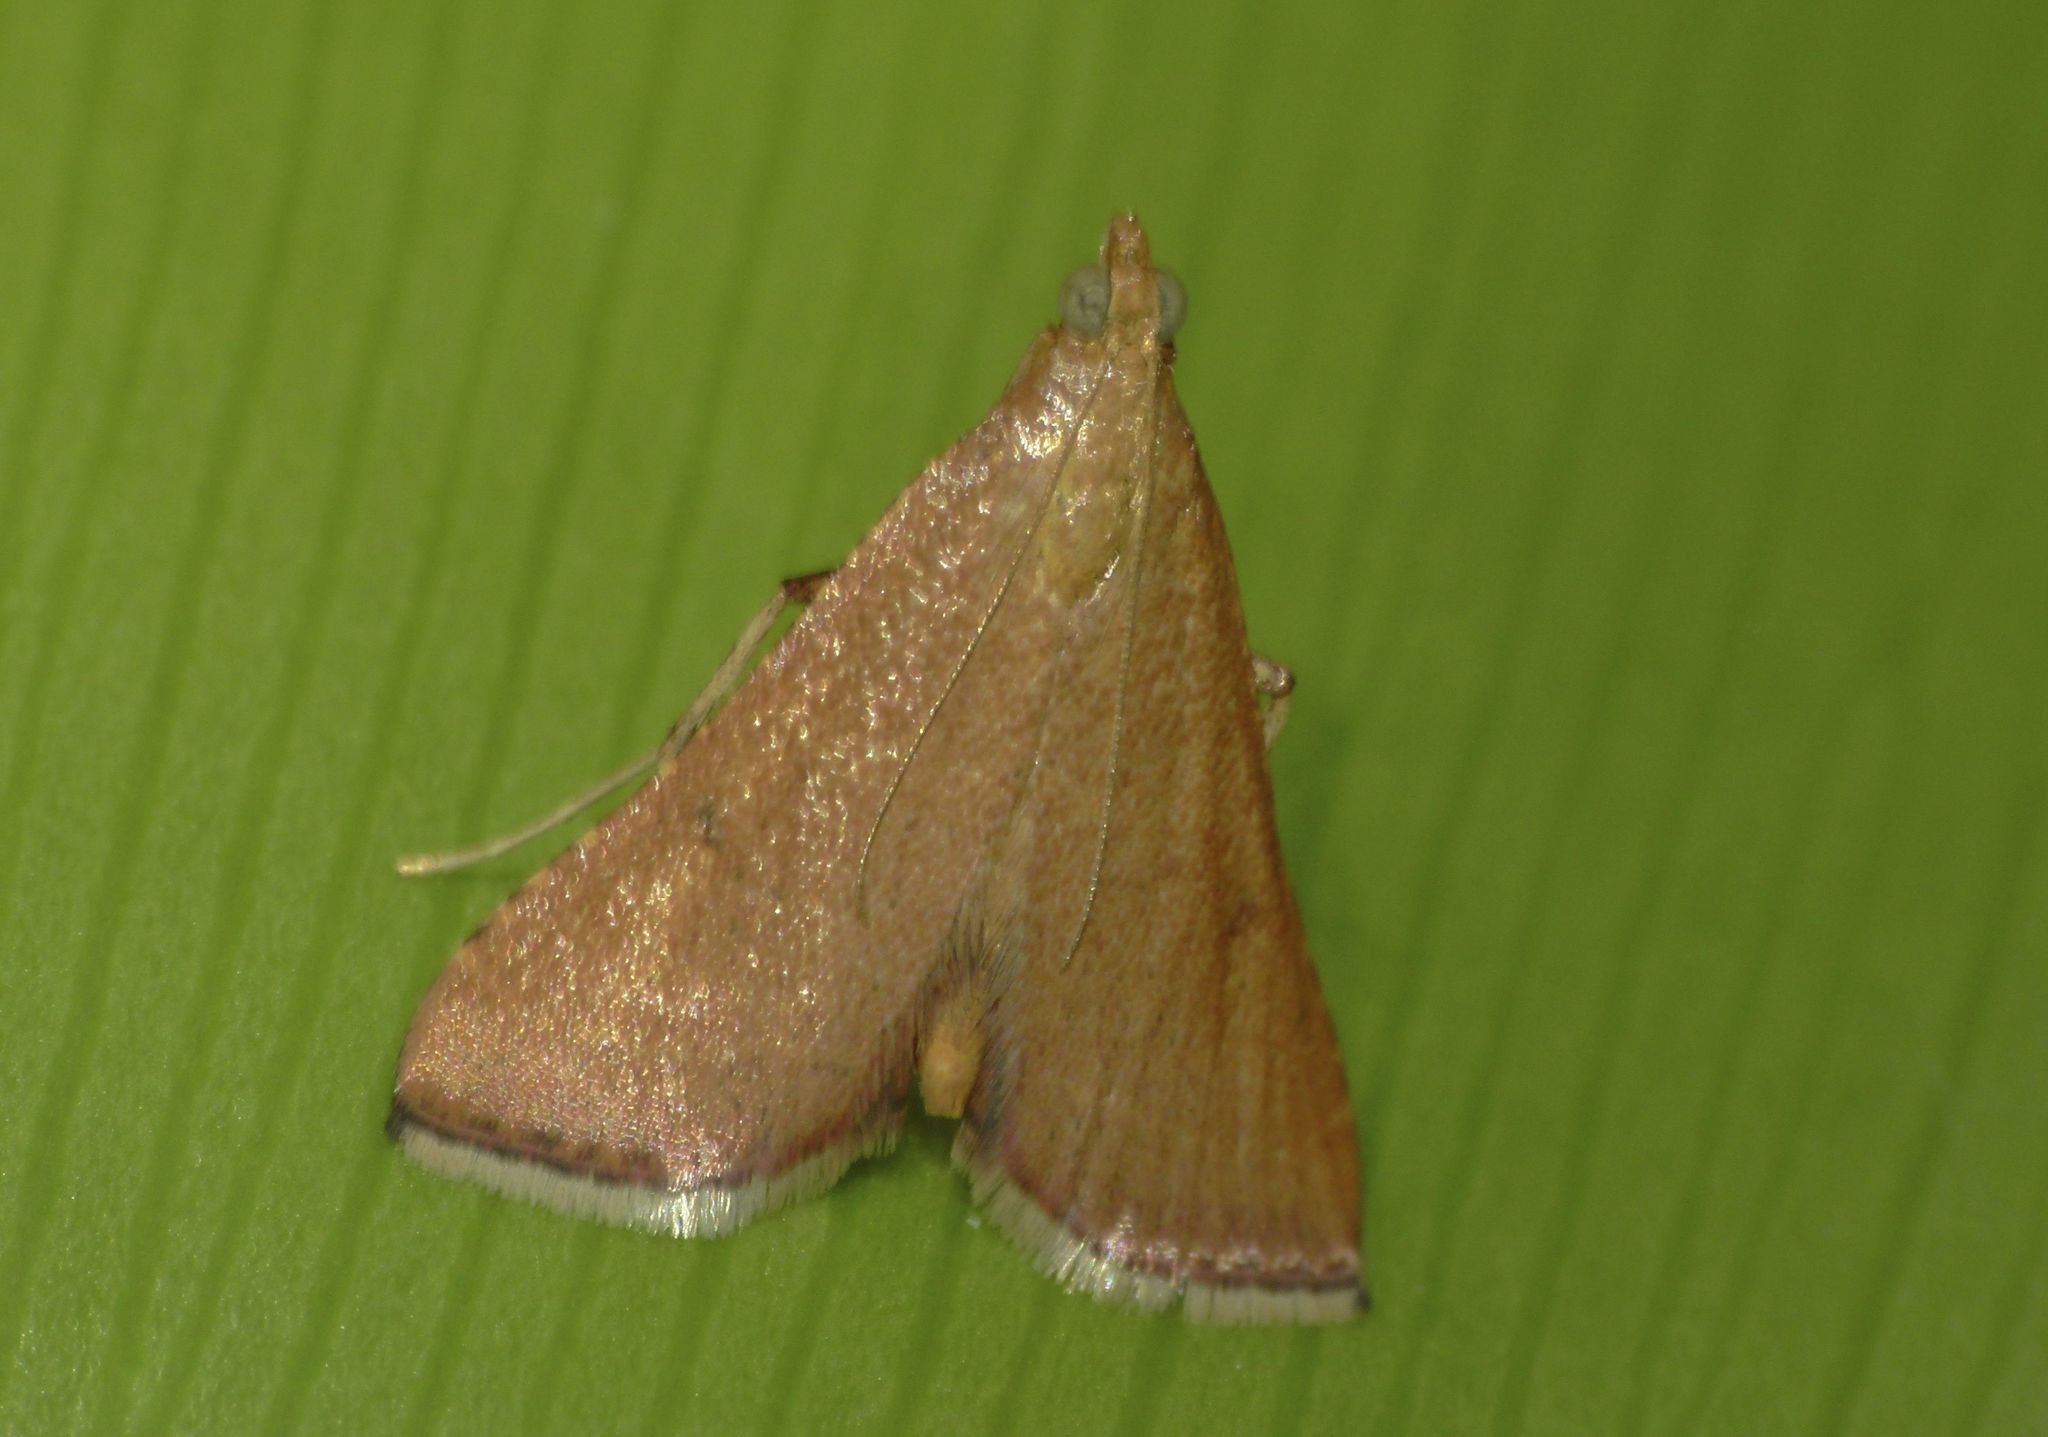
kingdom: Animalia
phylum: Arthropoda
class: Insecta
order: Lepidoptera
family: Pyralidae
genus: Endotricha
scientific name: Endotricha pyrosalis
